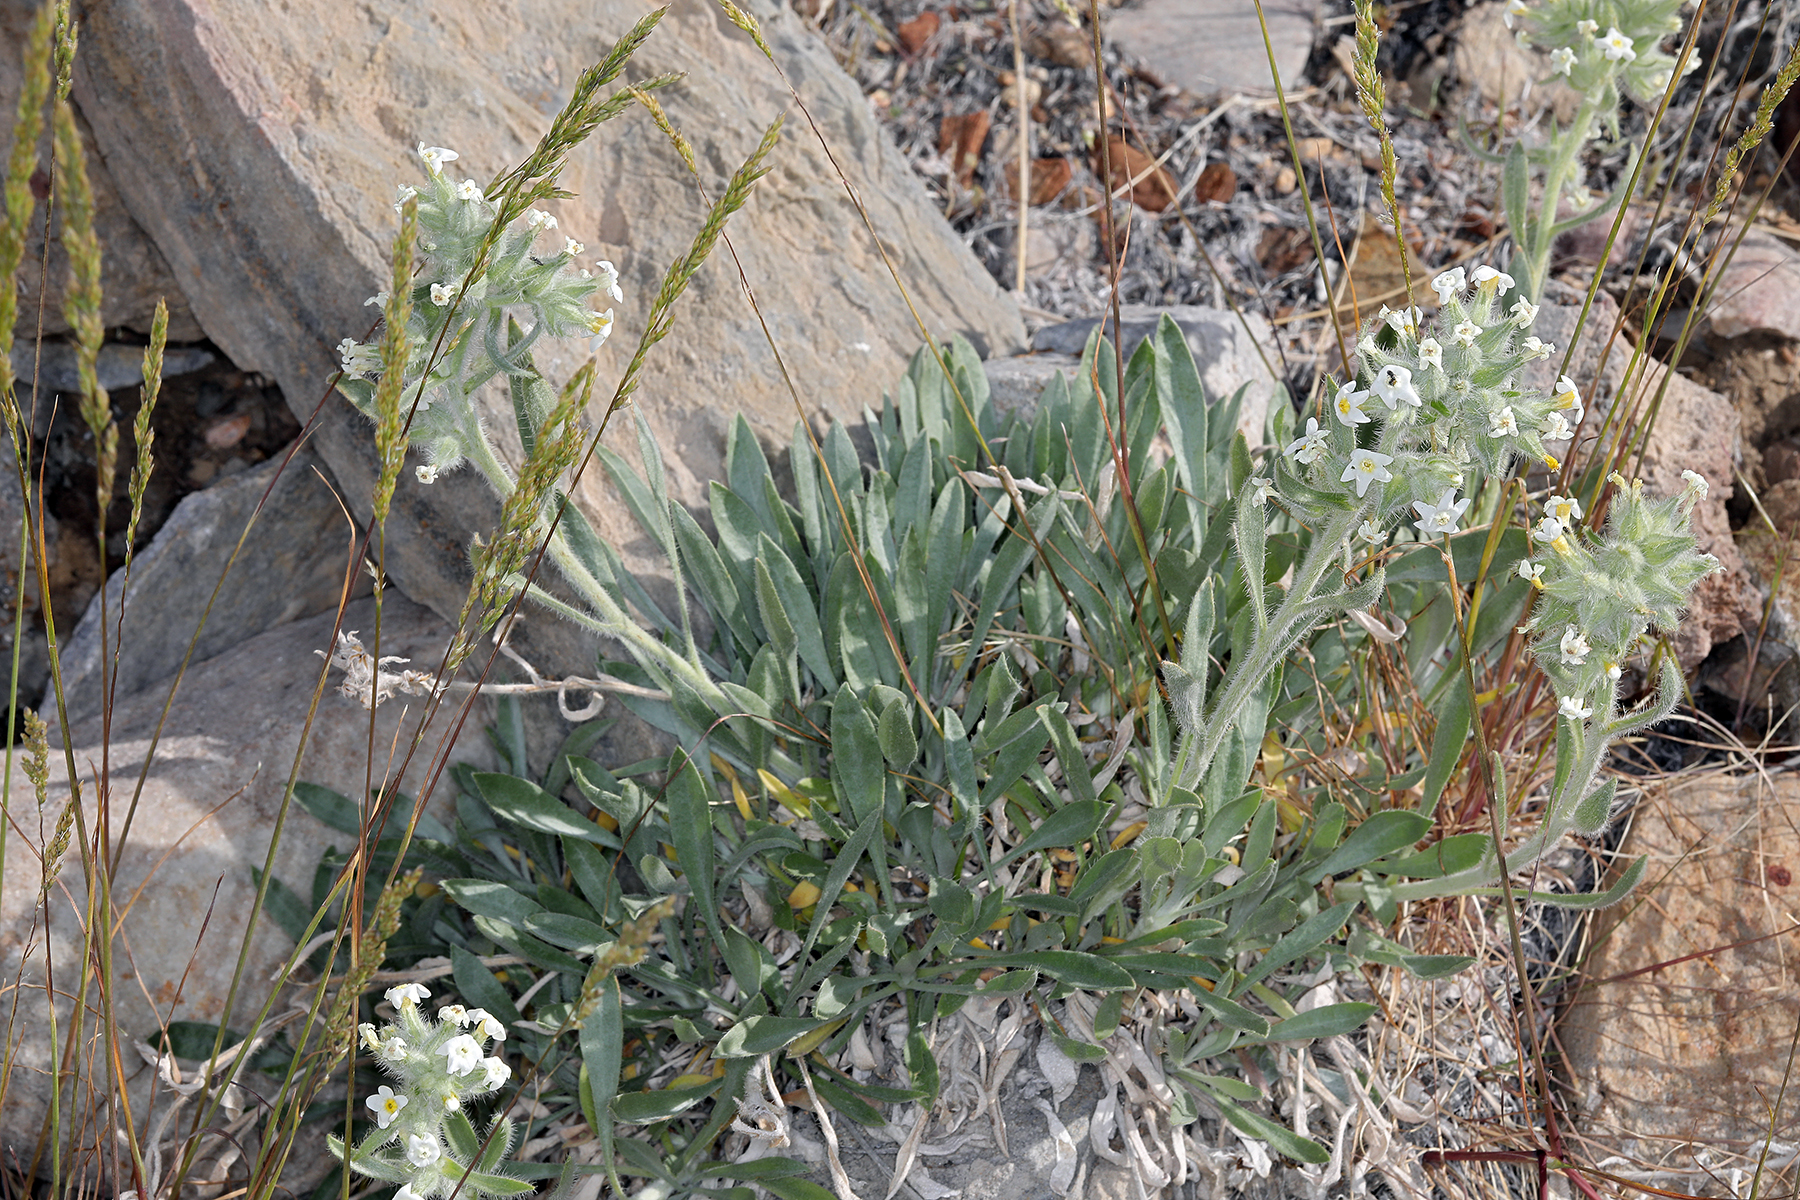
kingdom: Plantae
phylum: Tracheophyta
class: Magnoliopsida
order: Boraginales
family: Boraginaceae
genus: Oreocarya
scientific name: Oreocarya flavoculata
